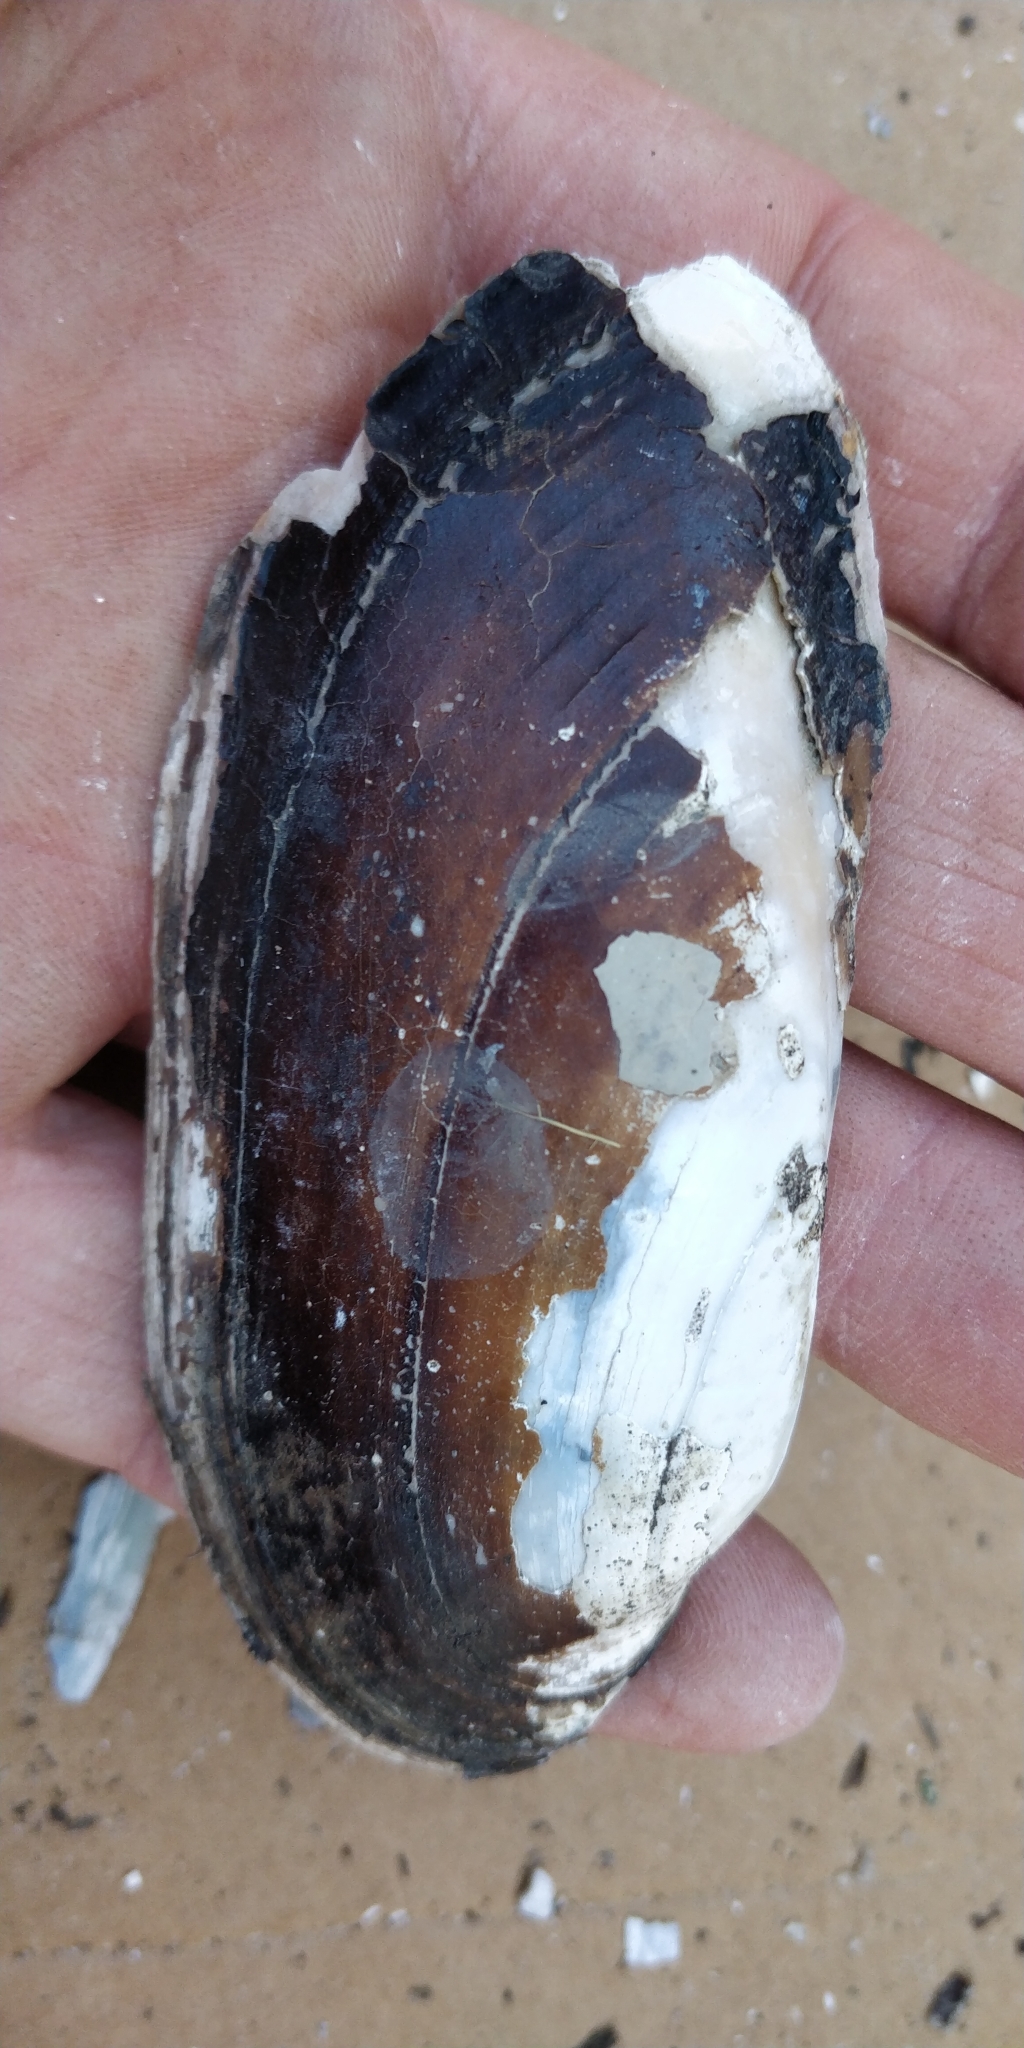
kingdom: Animalia
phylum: Mollusca
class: Bivalvia
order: Unionida
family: Unionidae
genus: Ligumia
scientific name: Ligumia recta
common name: Black sandshell
